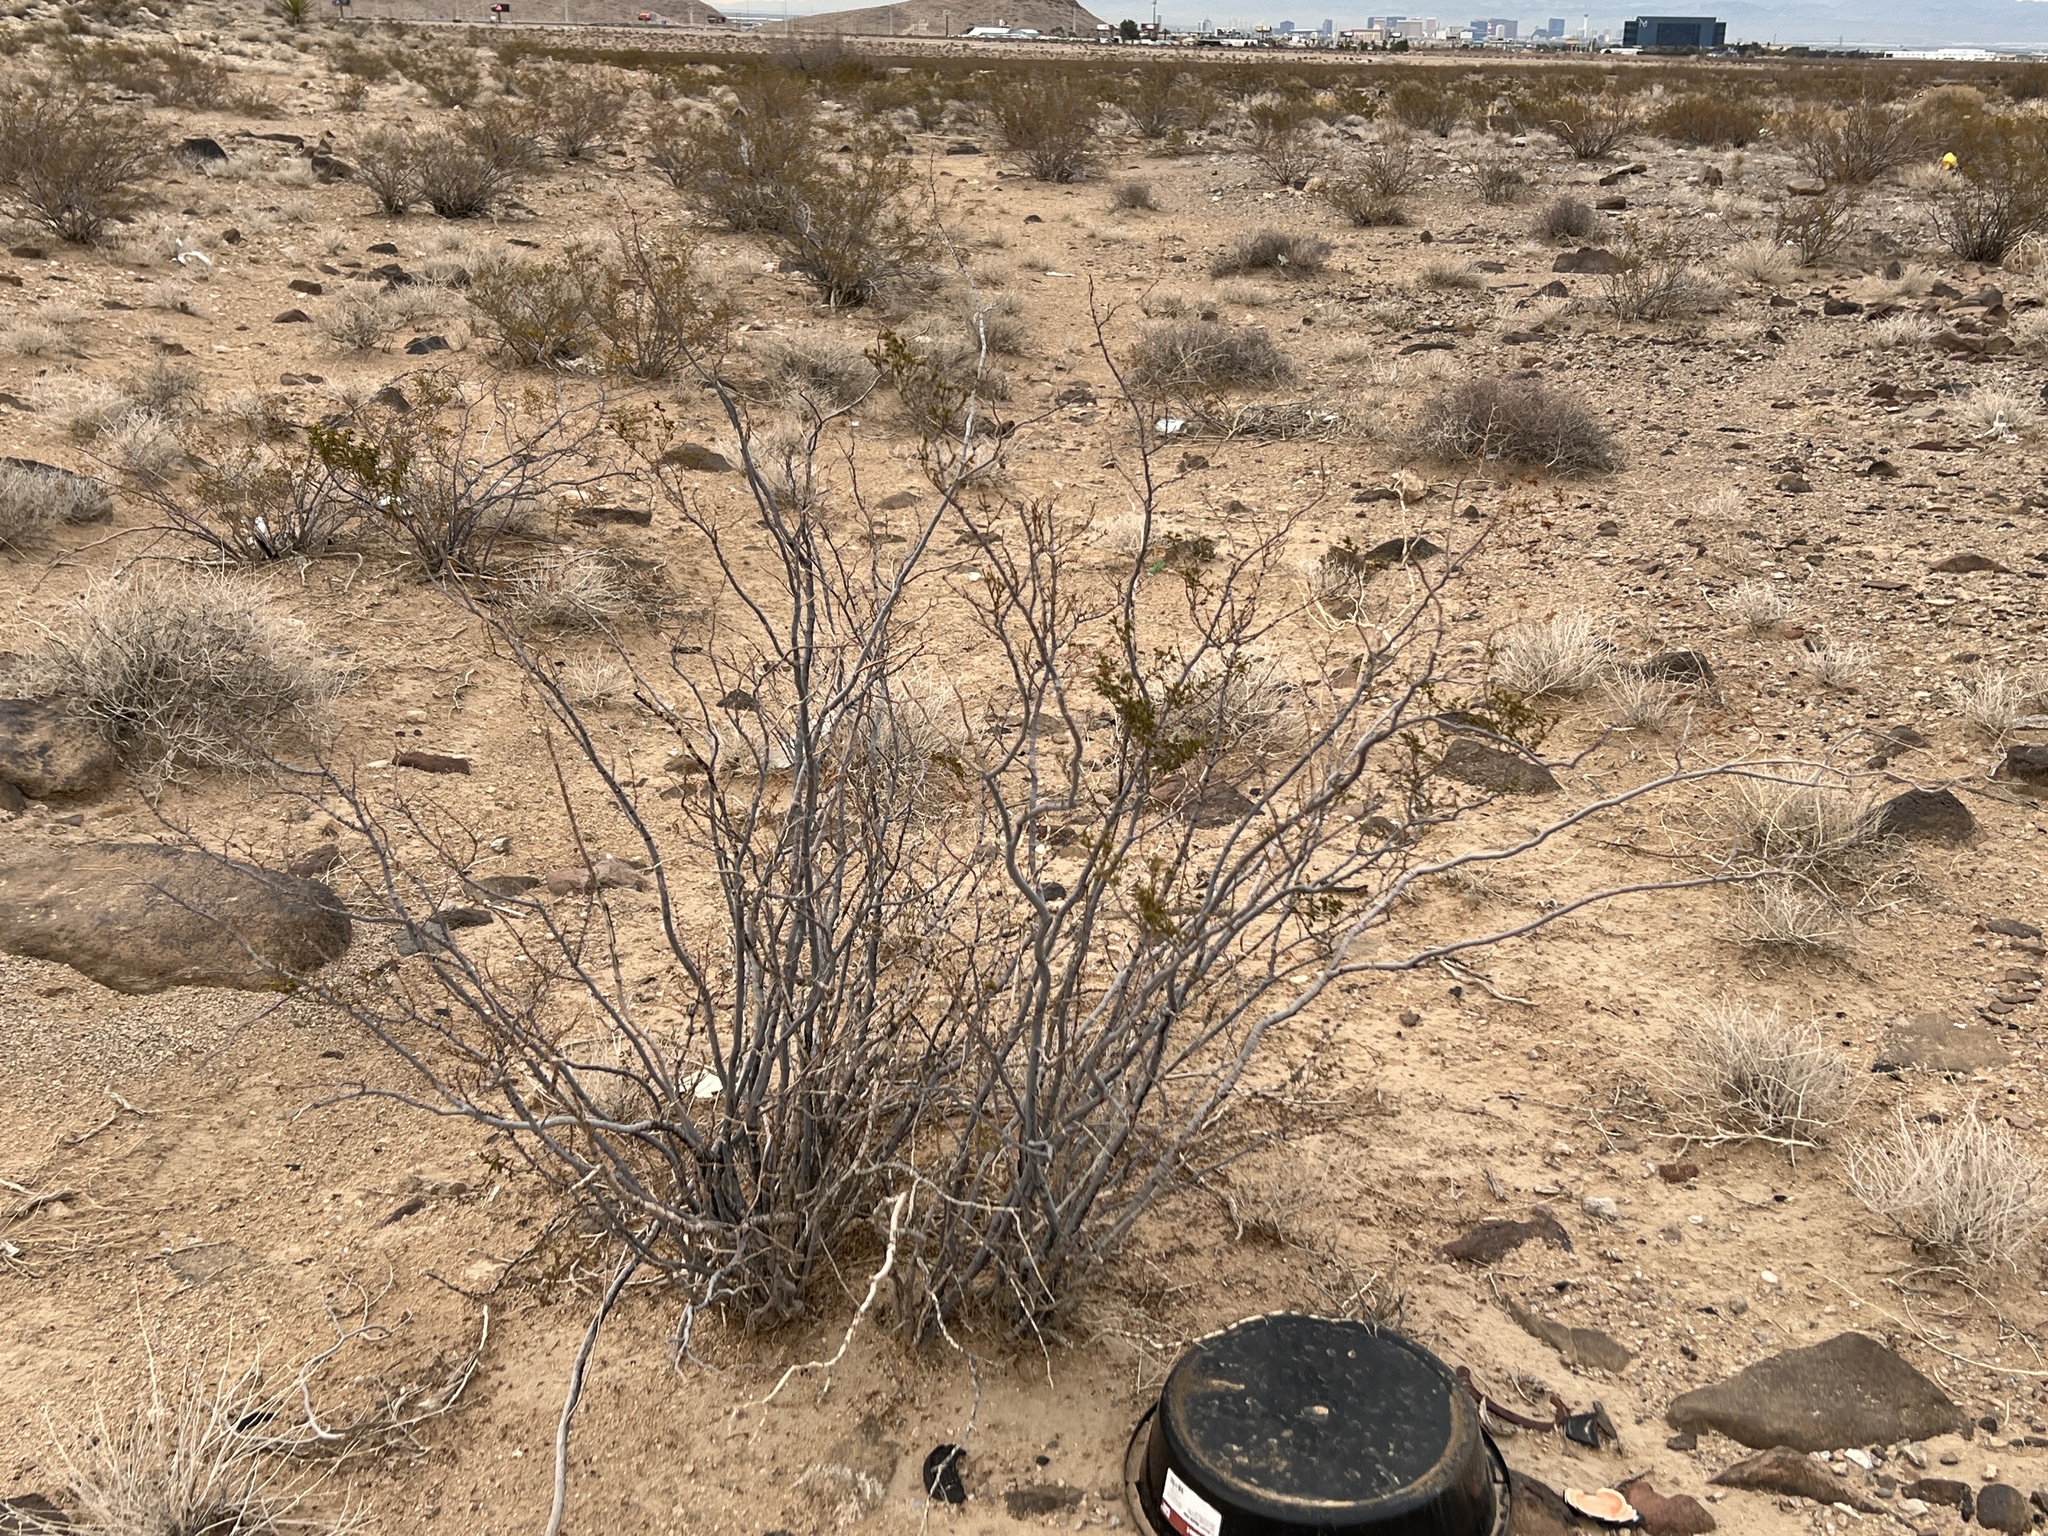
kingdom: Plantae
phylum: Tracheophyta
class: Magnoliopsida
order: Zygophyllales
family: Zygophyllaceae
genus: Larrea
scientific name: Larrea tridentata
